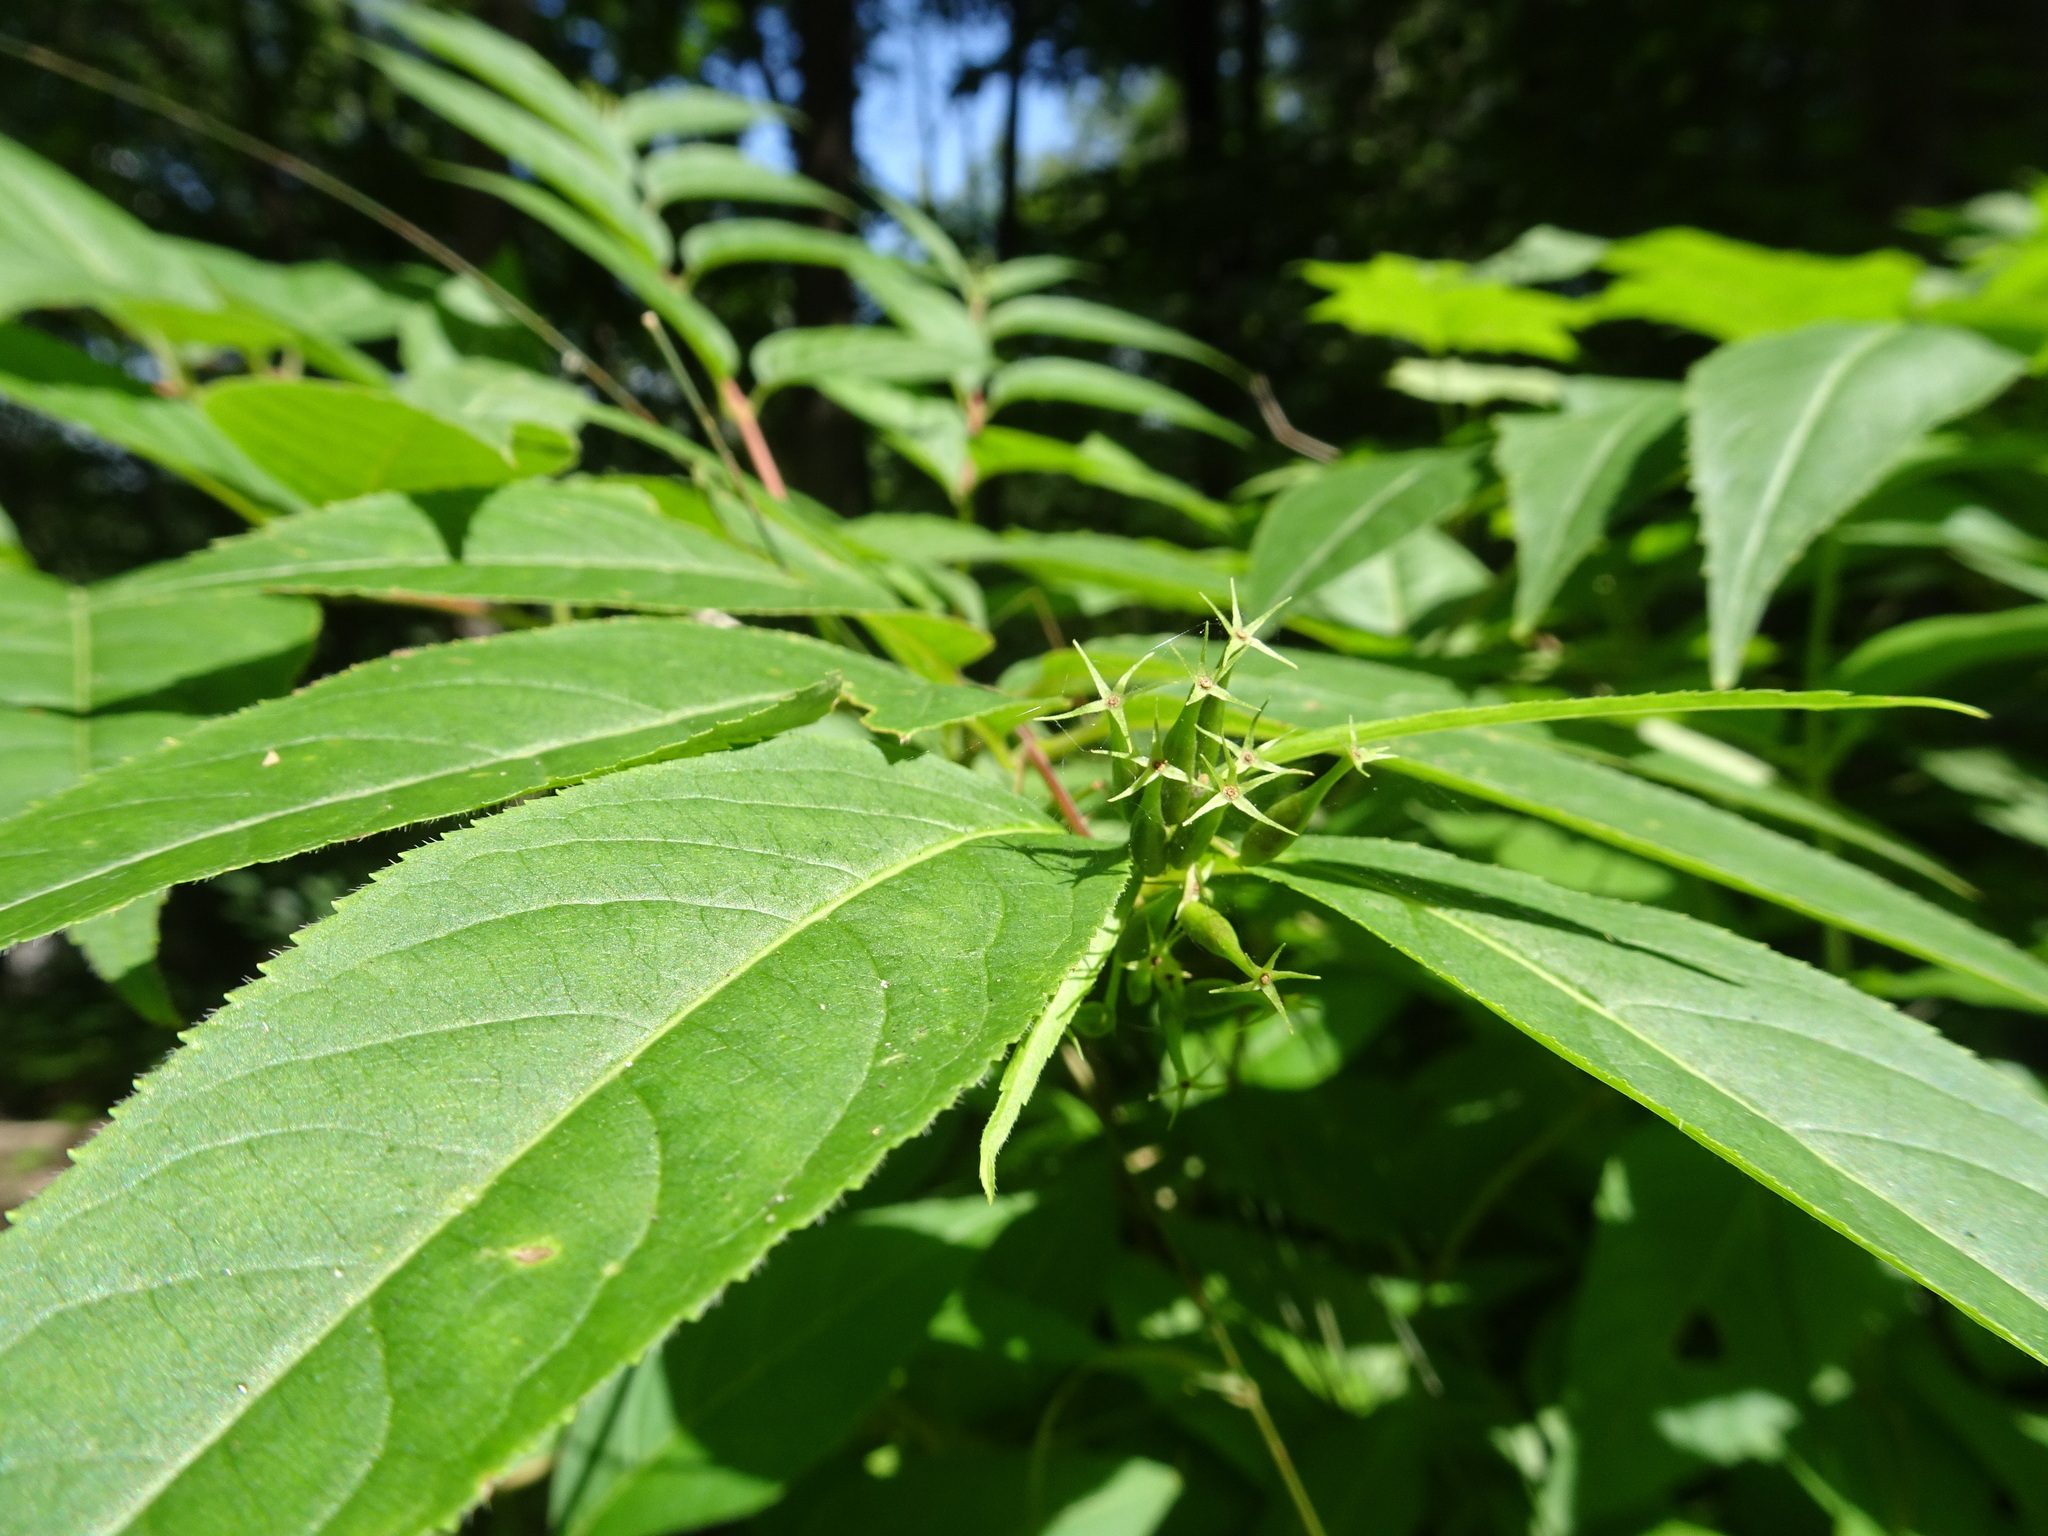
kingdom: Plantae
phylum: Tracheophyta
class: Magnoliopsida
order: Dipsacales
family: Caprifoliaceae
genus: Diervilla
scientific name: Diervilla lonicera
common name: Bush-honeysuckle
